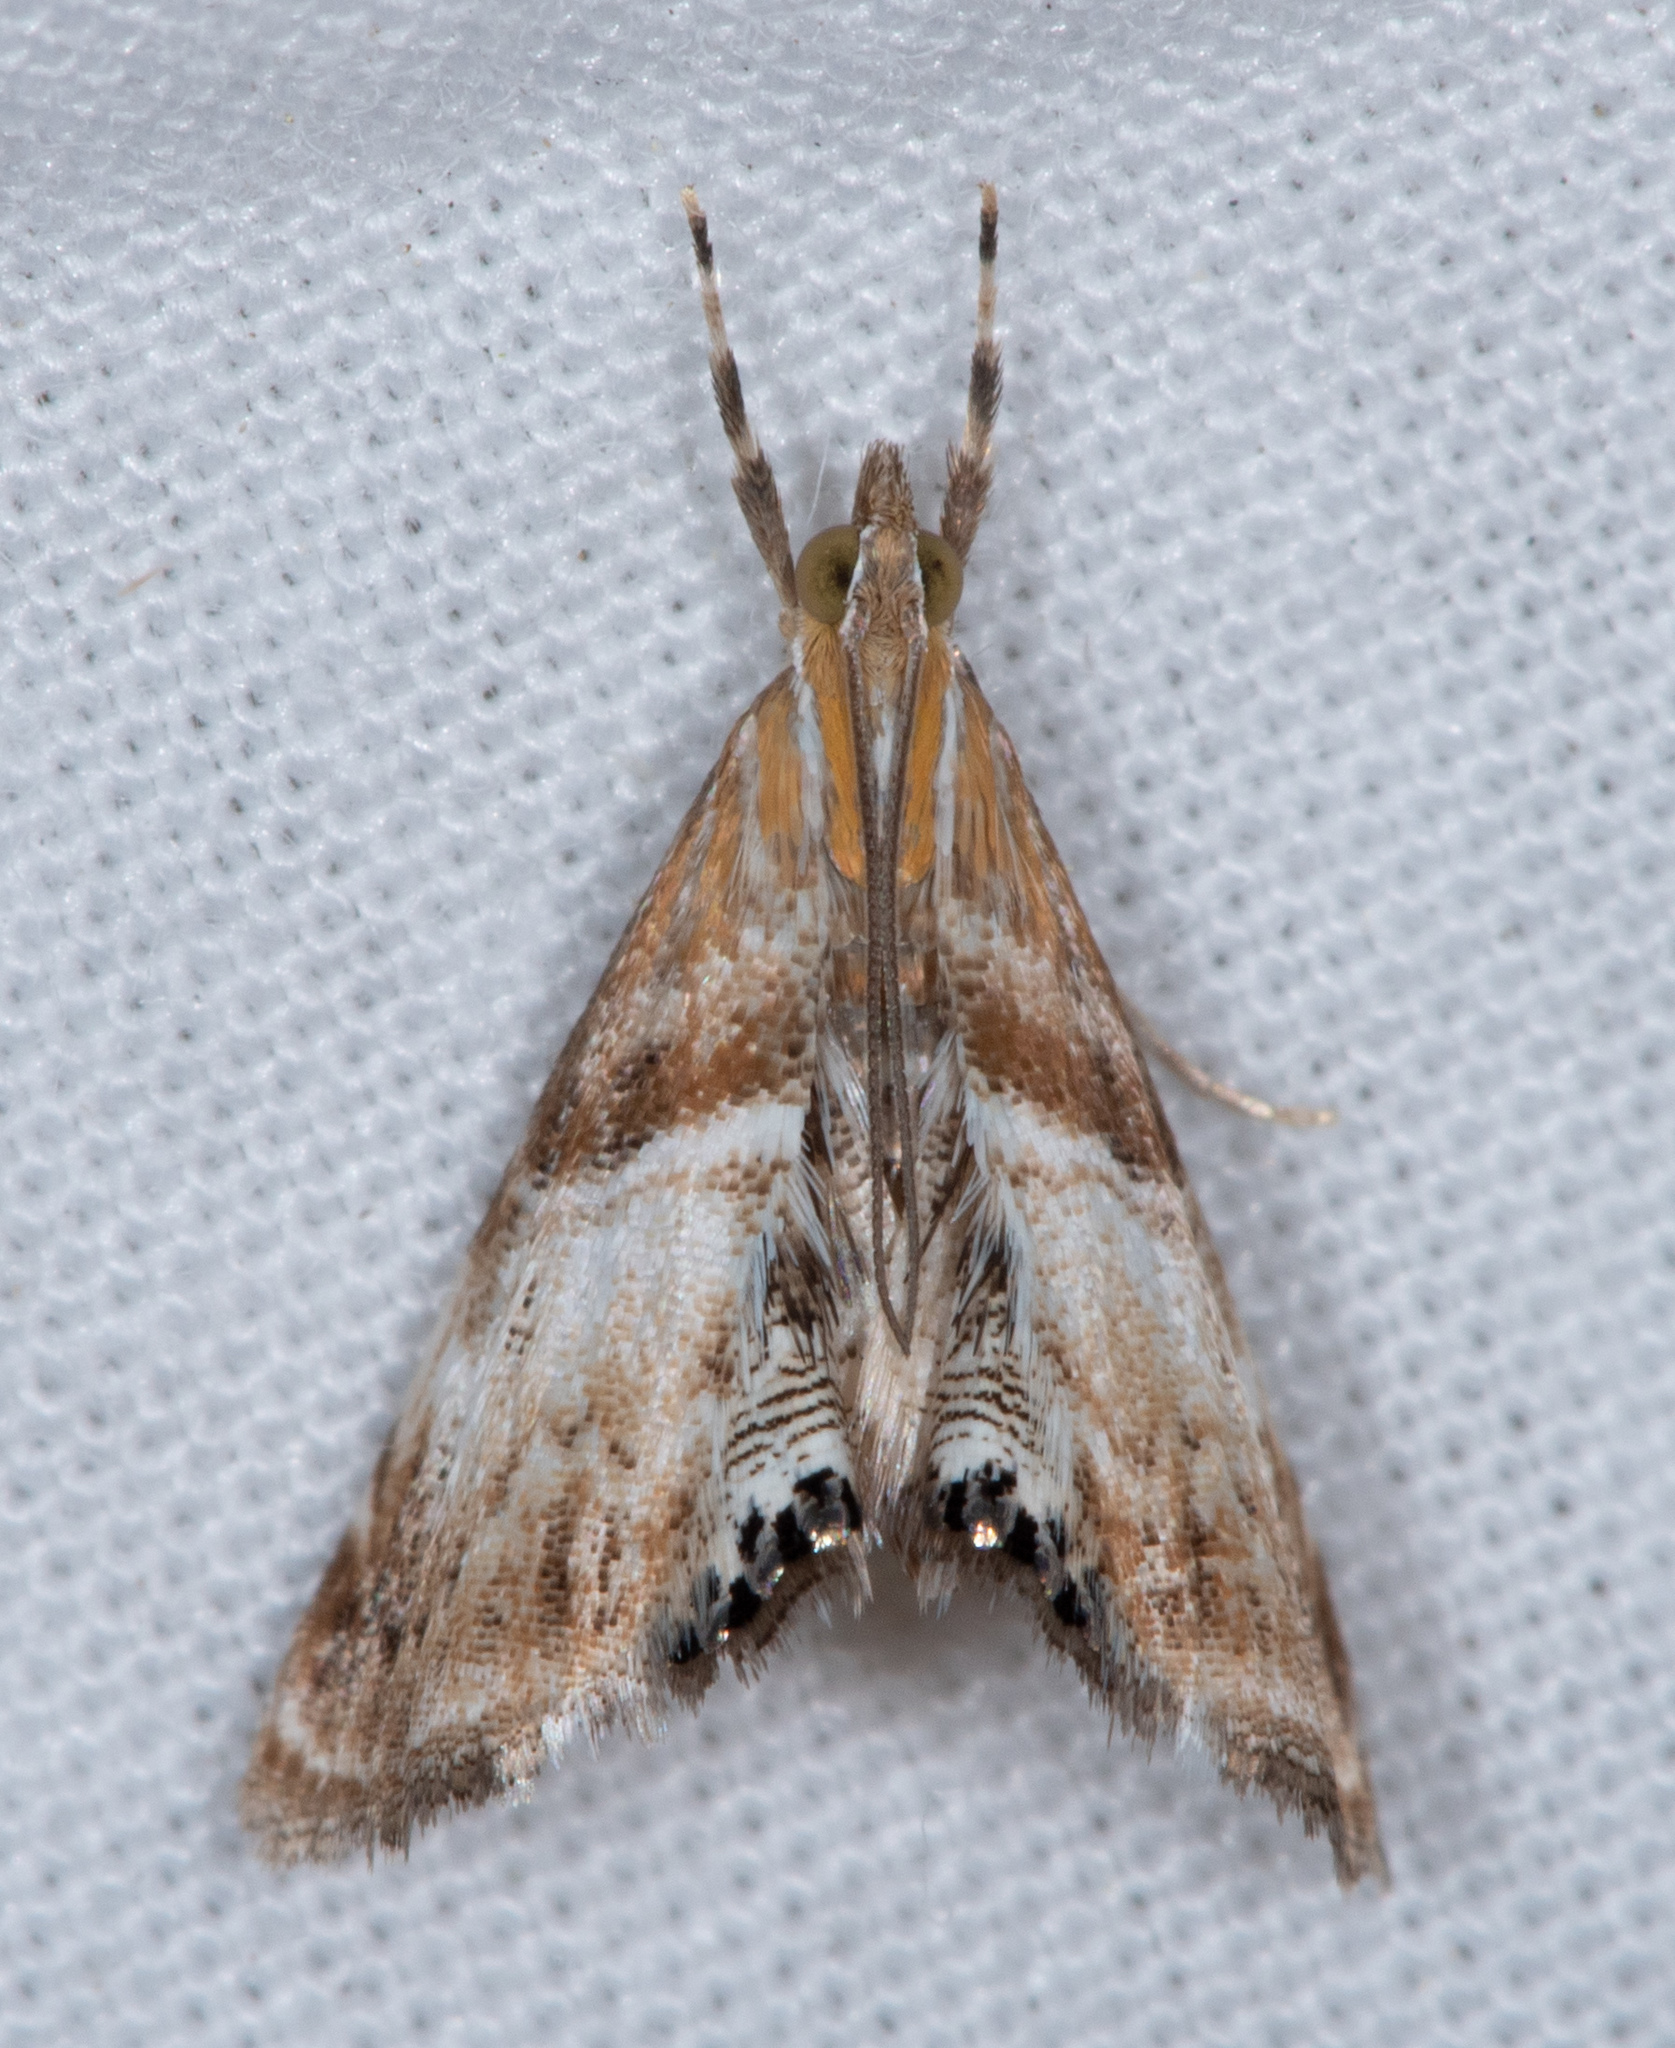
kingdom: Animalia
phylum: Arthropoda
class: Insecta
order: Lepidoptera
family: Crambidae
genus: Dicymolomia
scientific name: Dicymolomia metalliferalis
